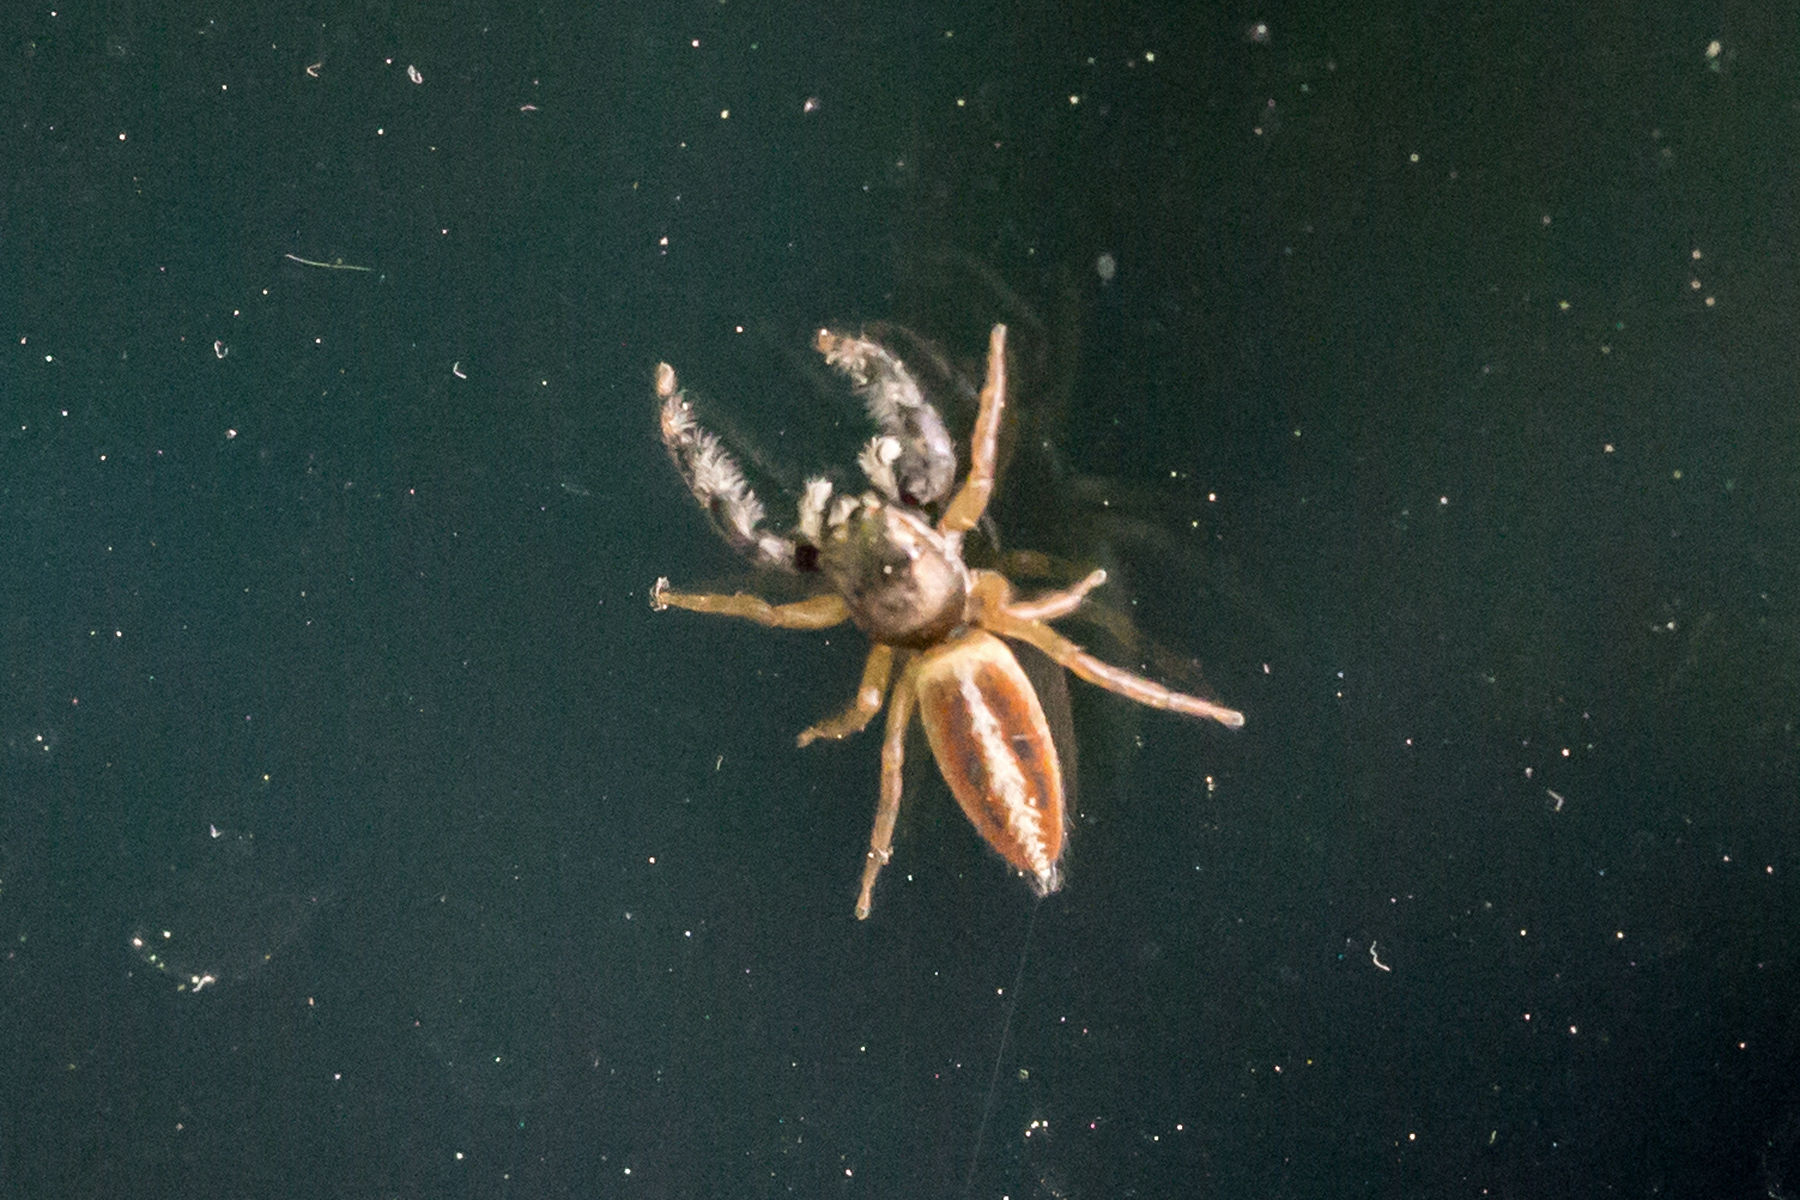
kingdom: Animalia
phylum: Arthropoda
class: Arachnida
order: Araneae
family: Salticidae
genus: Marpissa
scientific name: Marpissa formosa
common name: Short-bellied slender jumping spider
